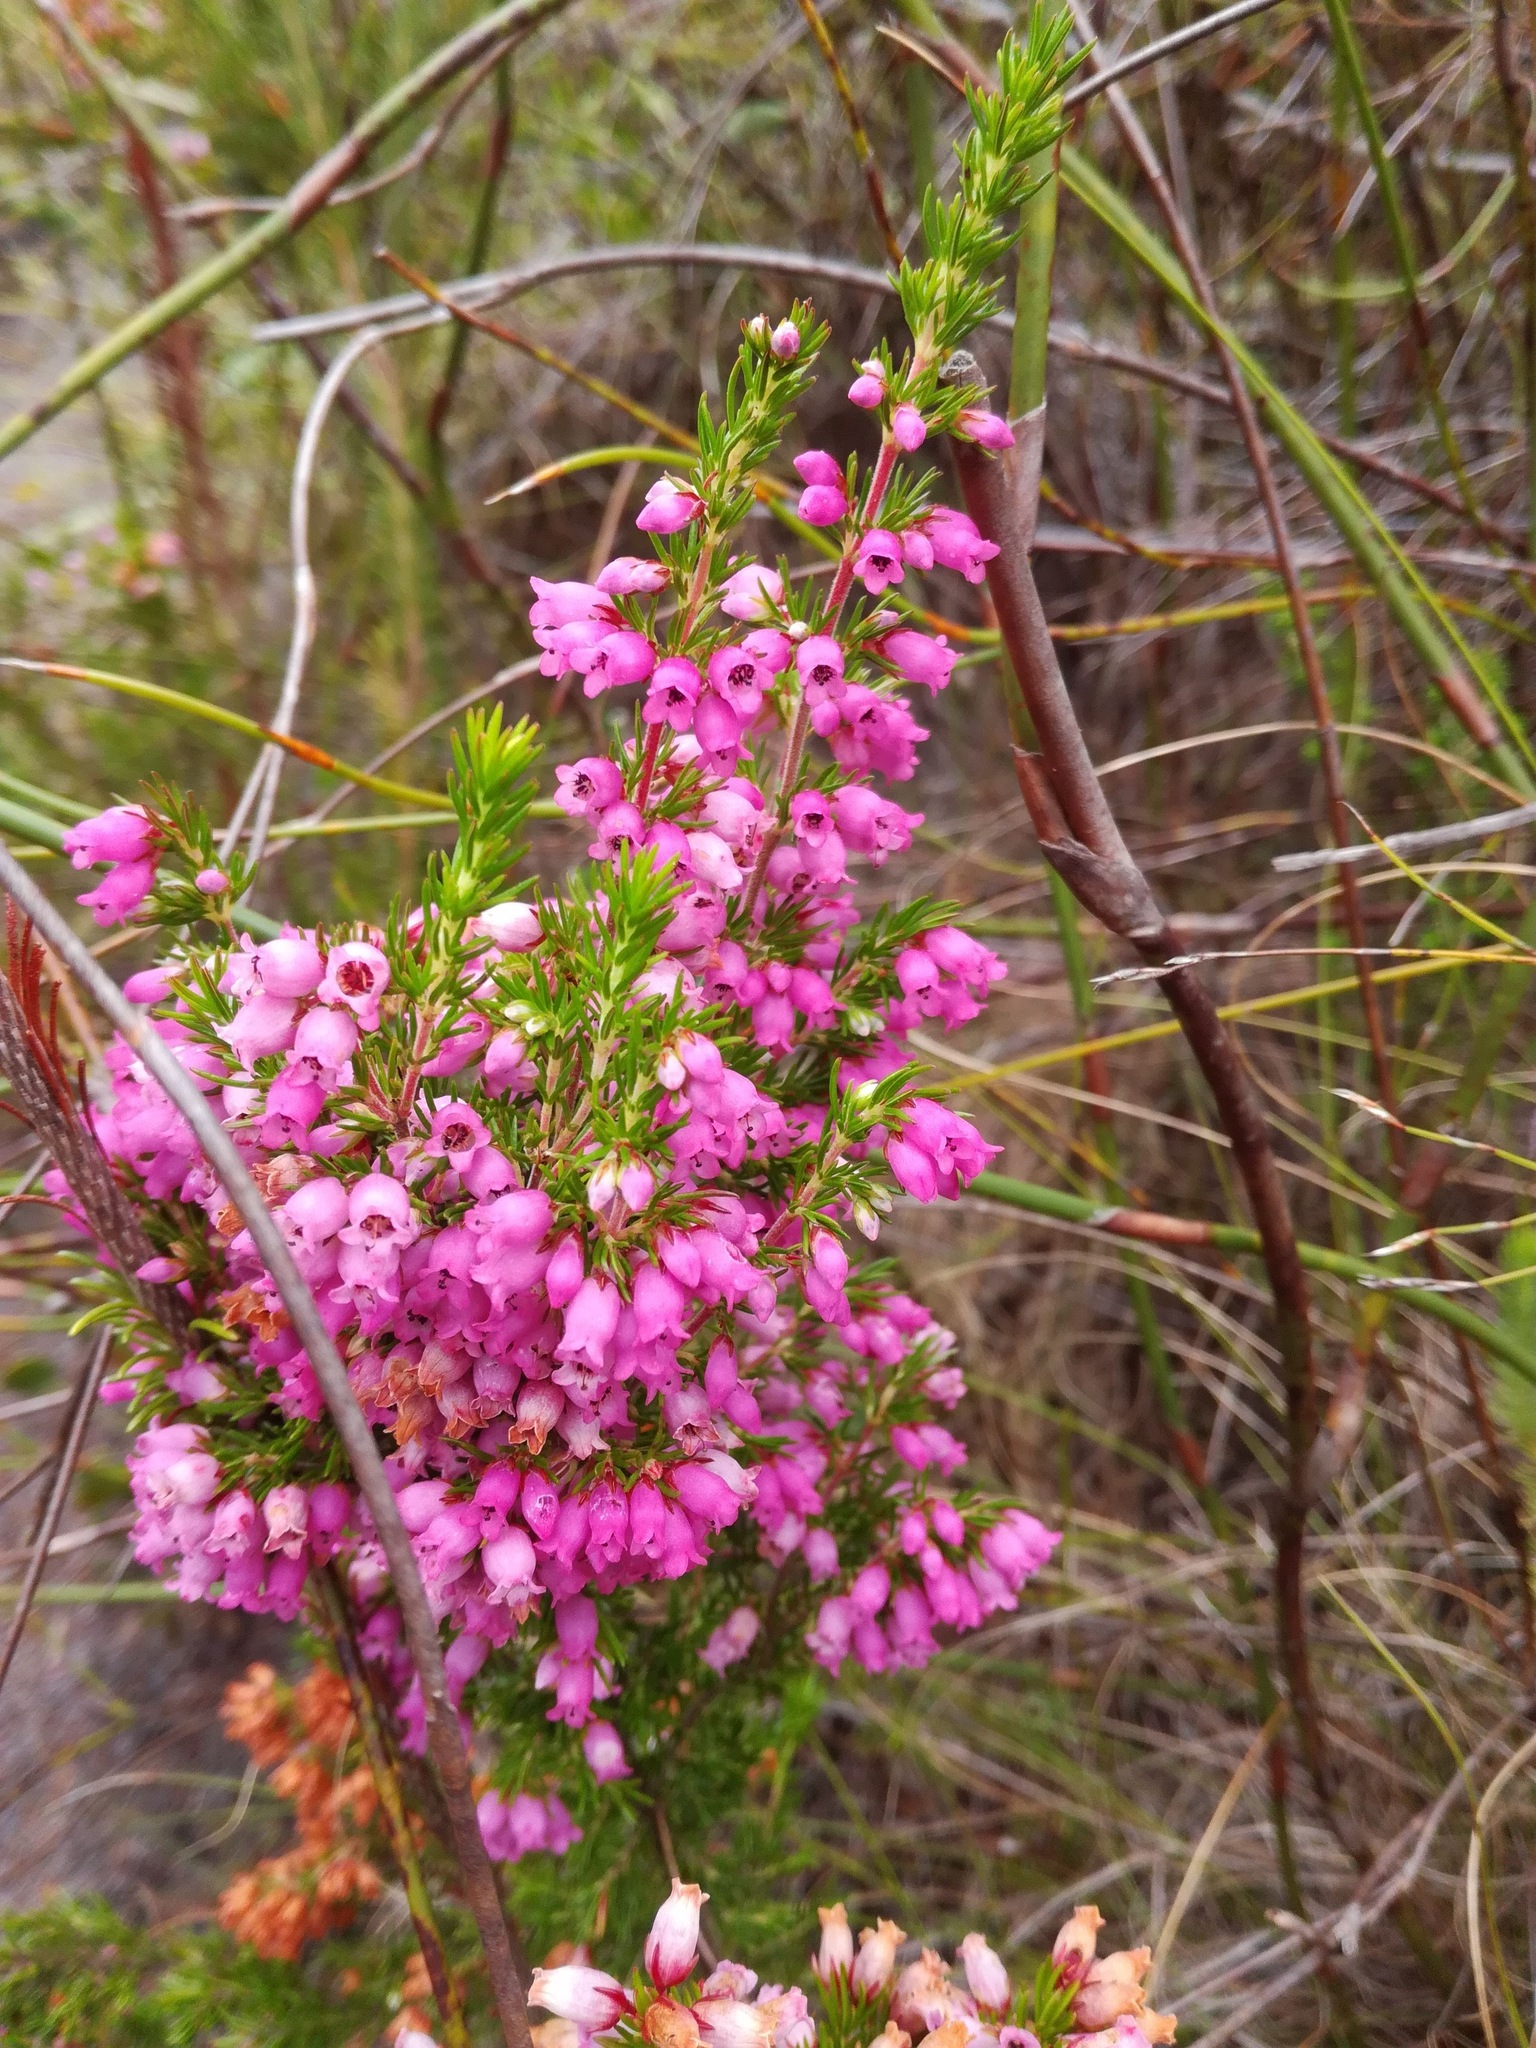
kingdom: Plantae
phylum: Tracheophyta
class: Magnoliopsida
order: Ericales
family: Ericaceae
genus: Erica
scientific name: Erica tenella
